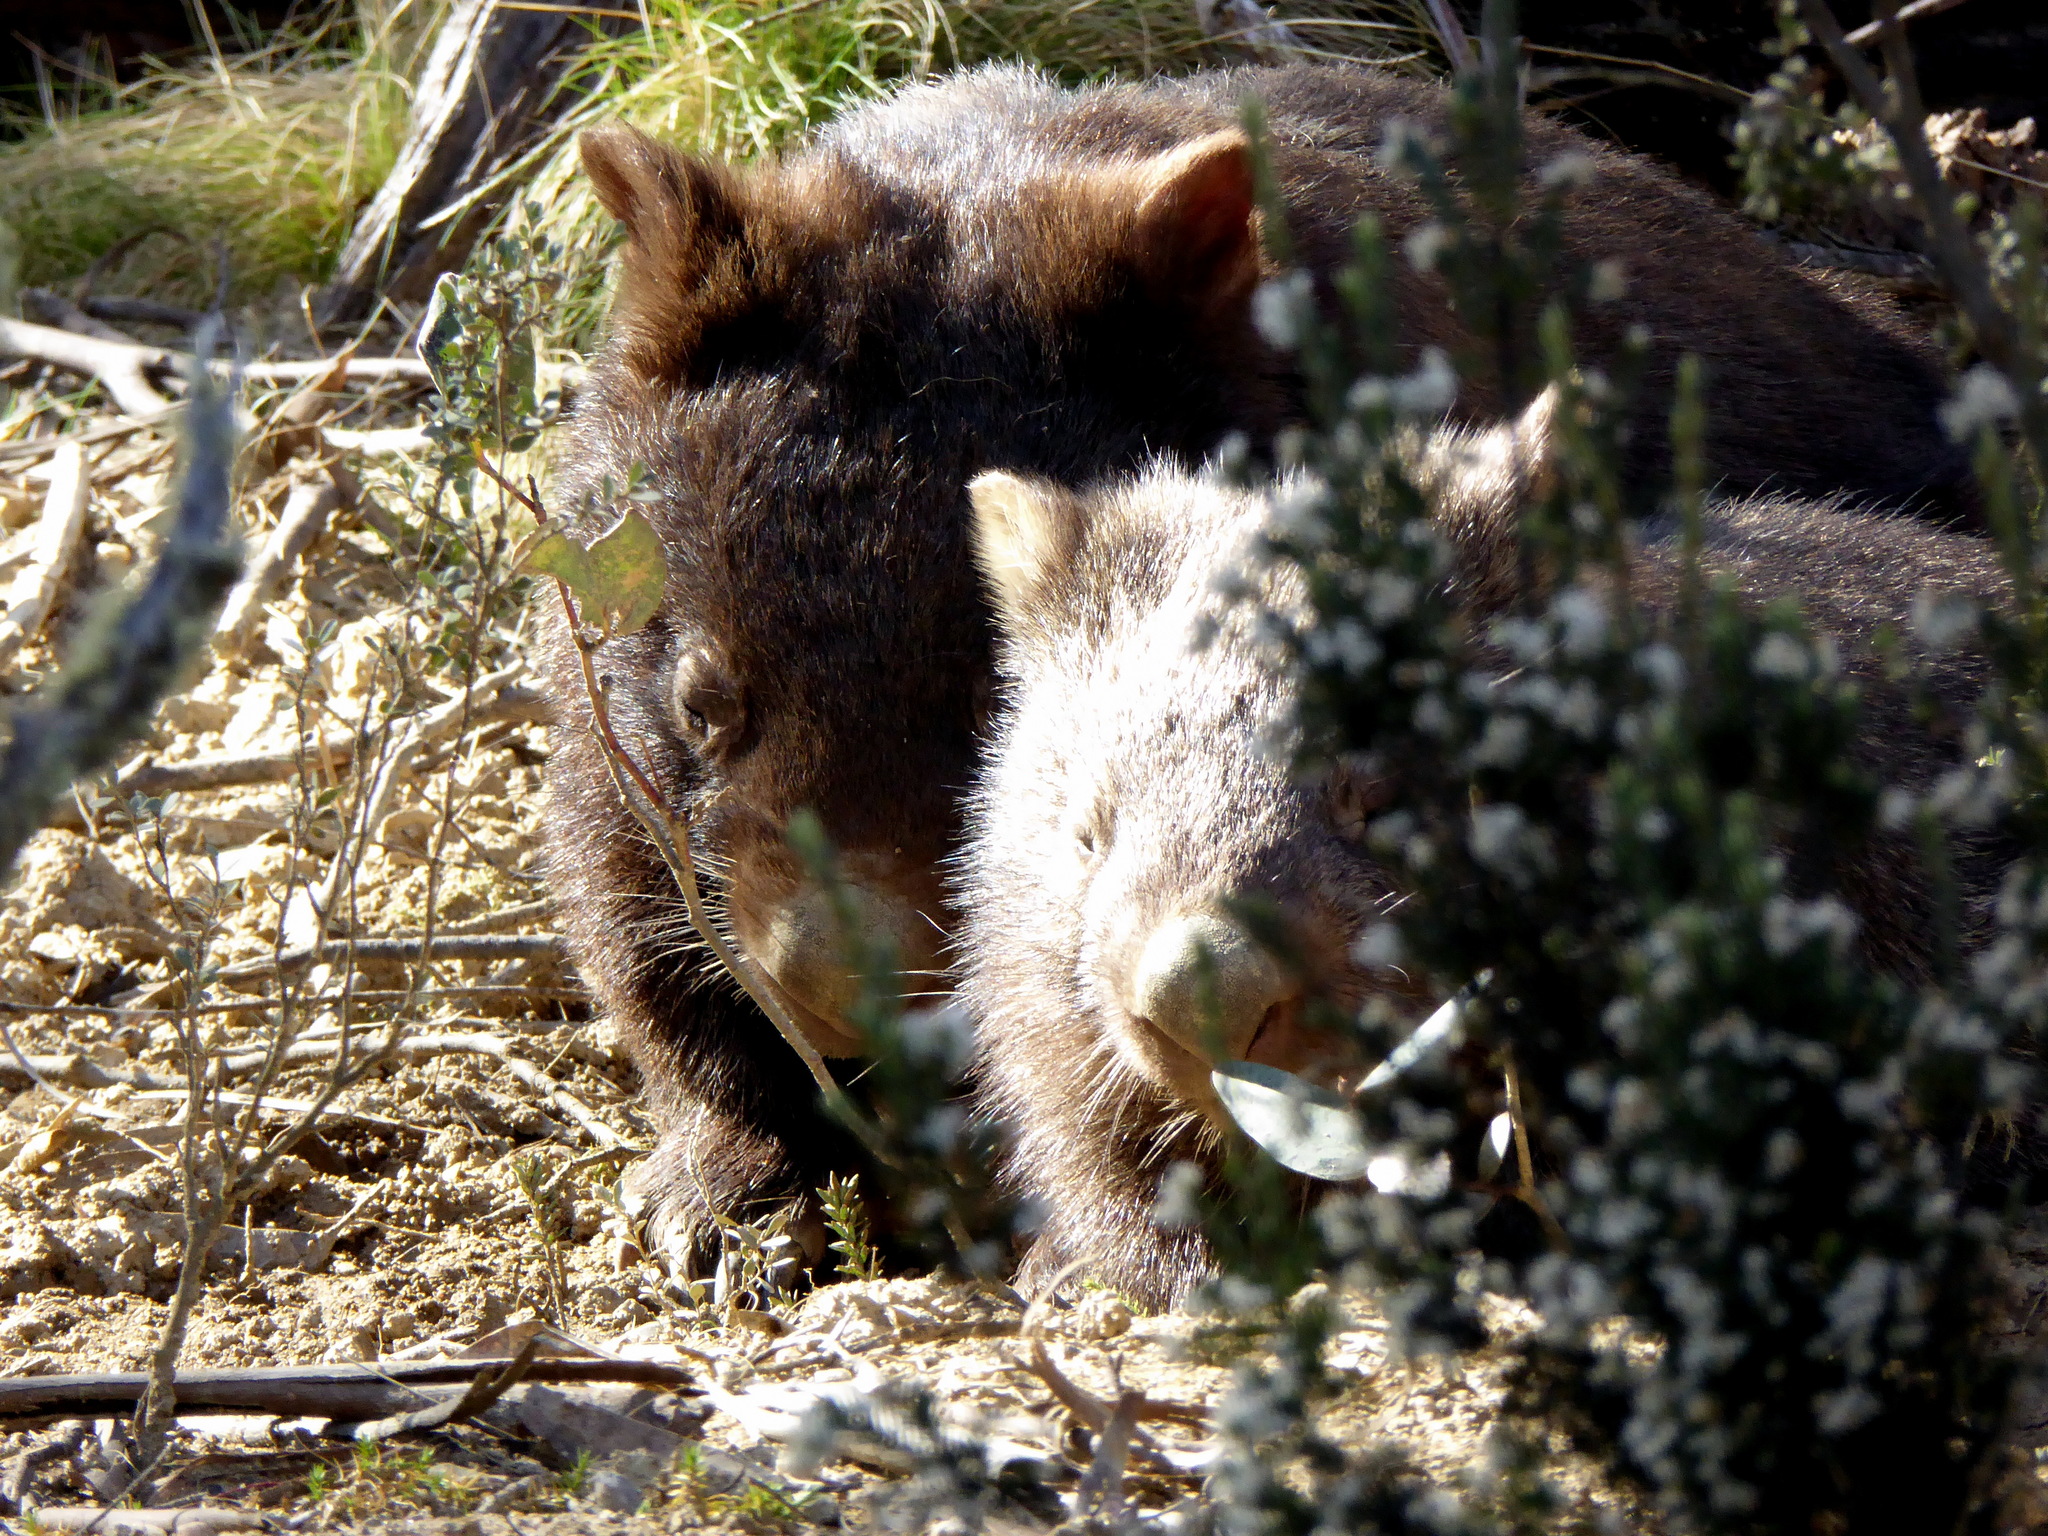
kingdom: Animalia
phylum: Chordata
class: Mammalia
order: Diprotodontia
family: Vombatidae
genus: Vombatus
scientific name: Vombatus ursinus
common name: Common wombat
